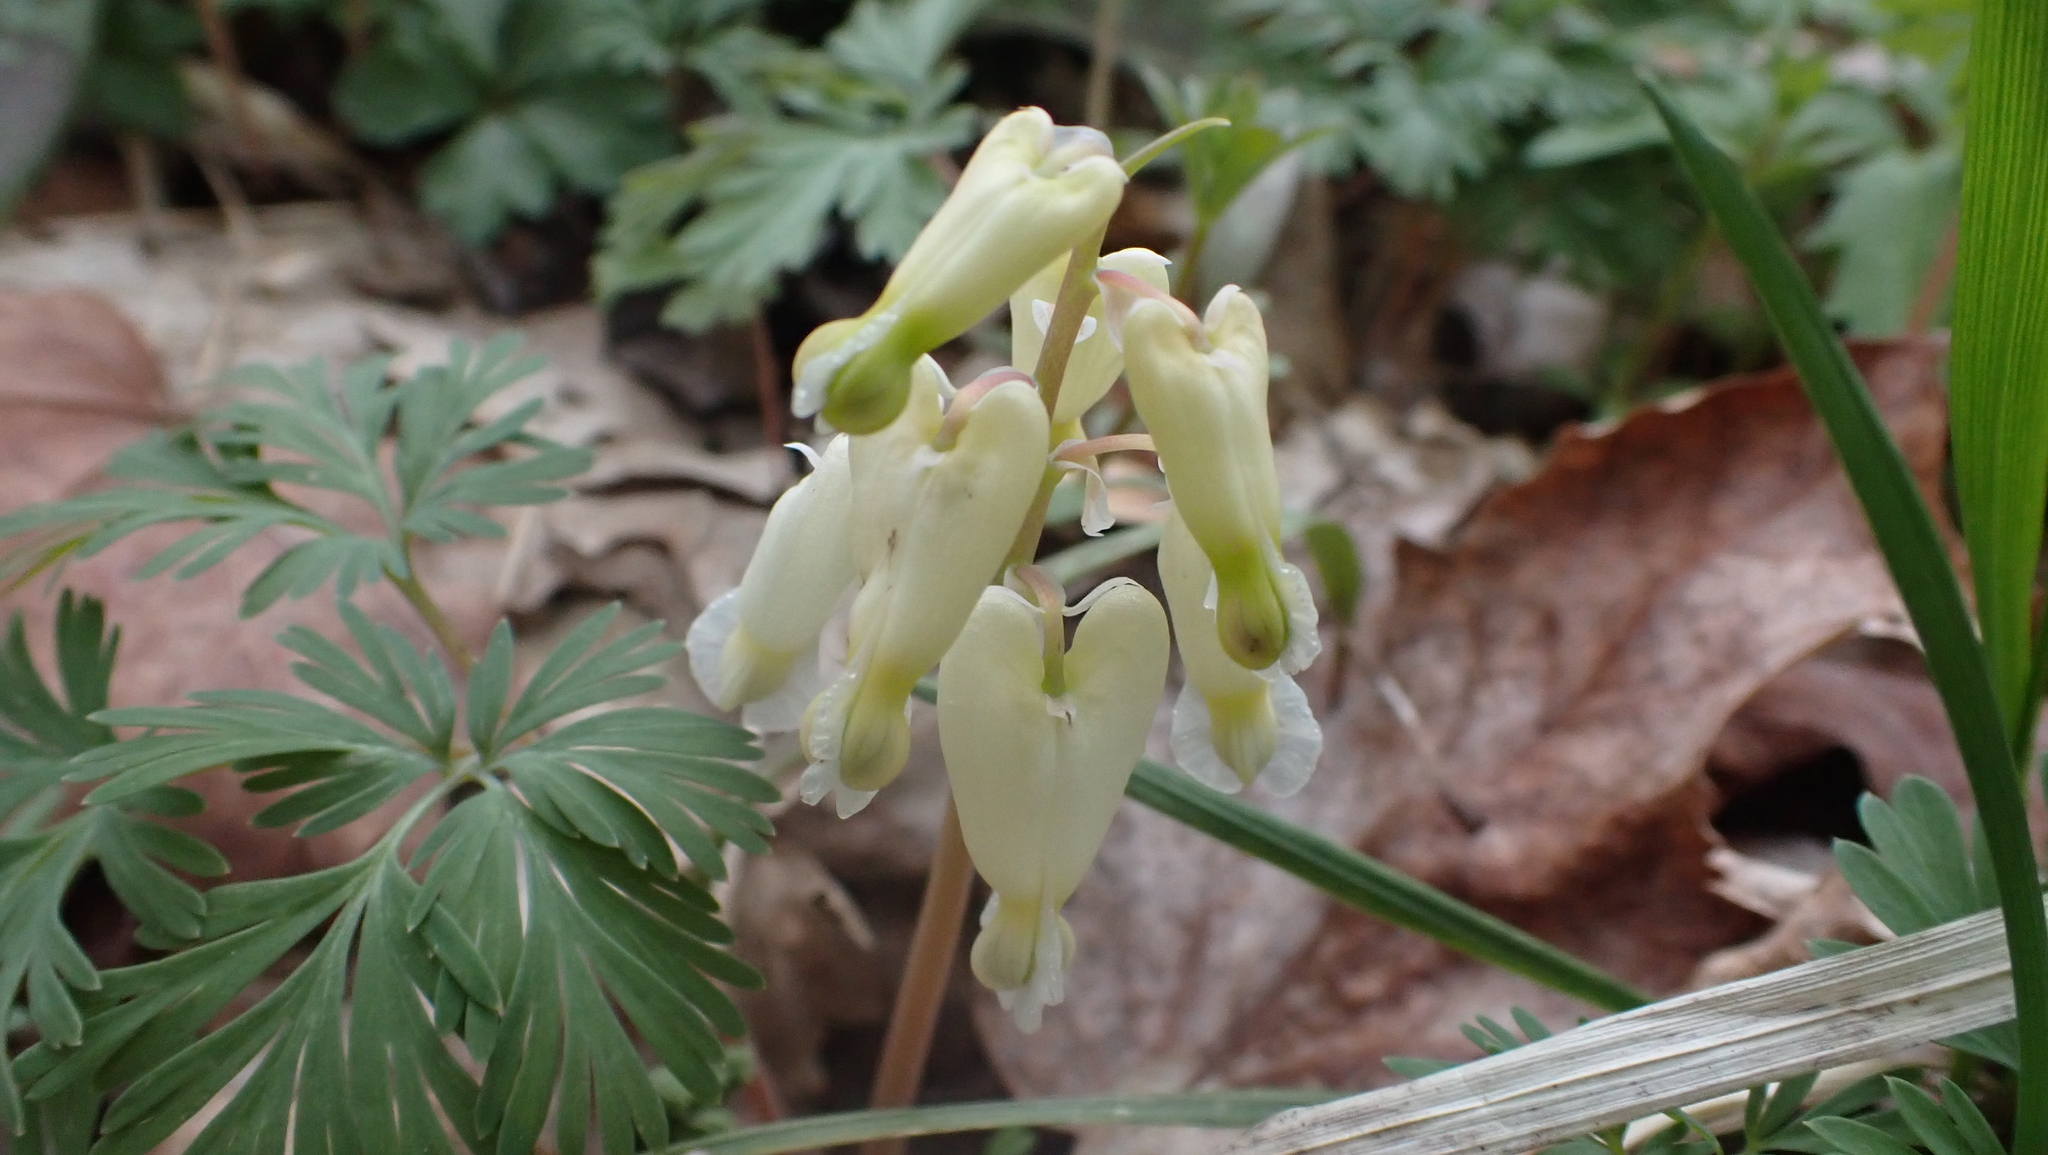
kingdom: Plantae
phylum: Tracheophyta
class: Magnoliopsida
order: Ranunculales
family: Papaveraceae
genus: Dicentra
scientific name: Dicentra canadensis
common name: Squirrel-corn
